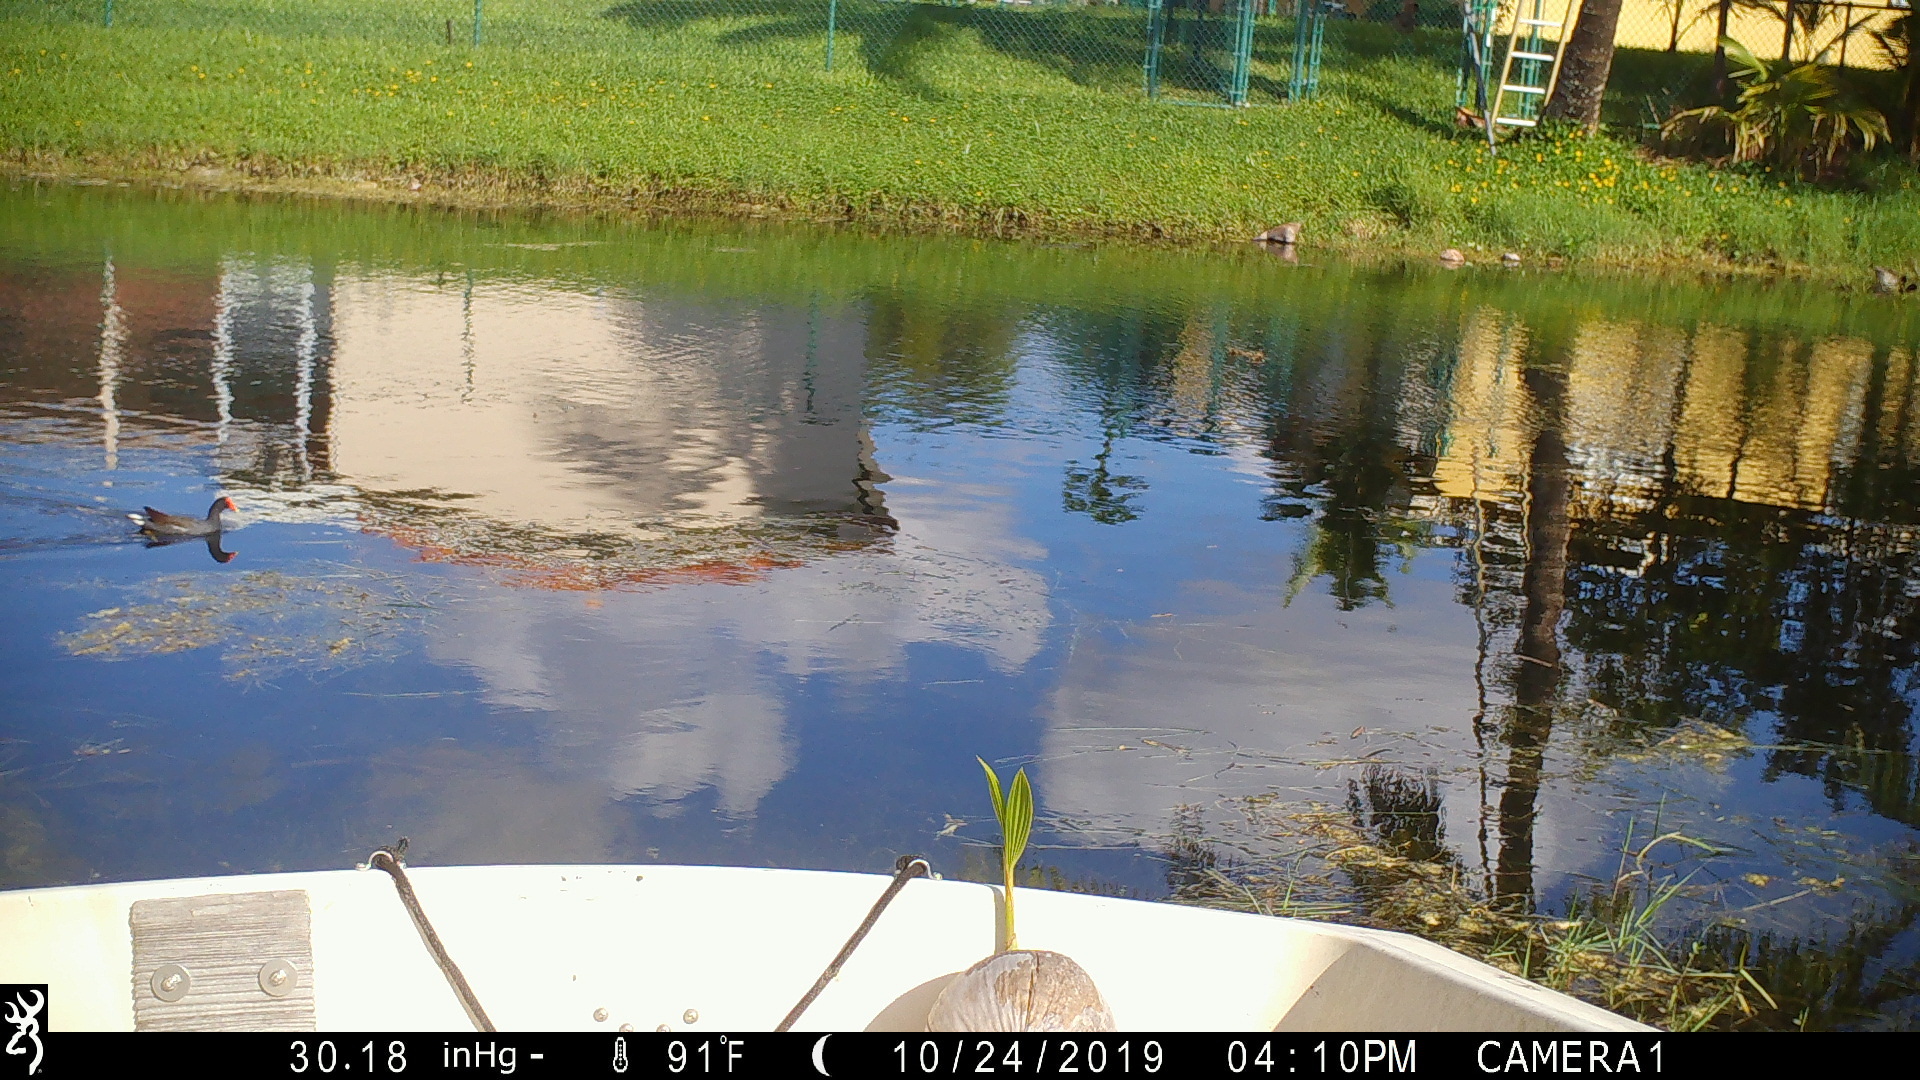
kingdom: Animalia
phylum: Chordata
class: Aves
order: Gruiformes
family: Rallidae
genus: Gallinula
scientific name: Gallinula chloropus
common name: Common moorhen
